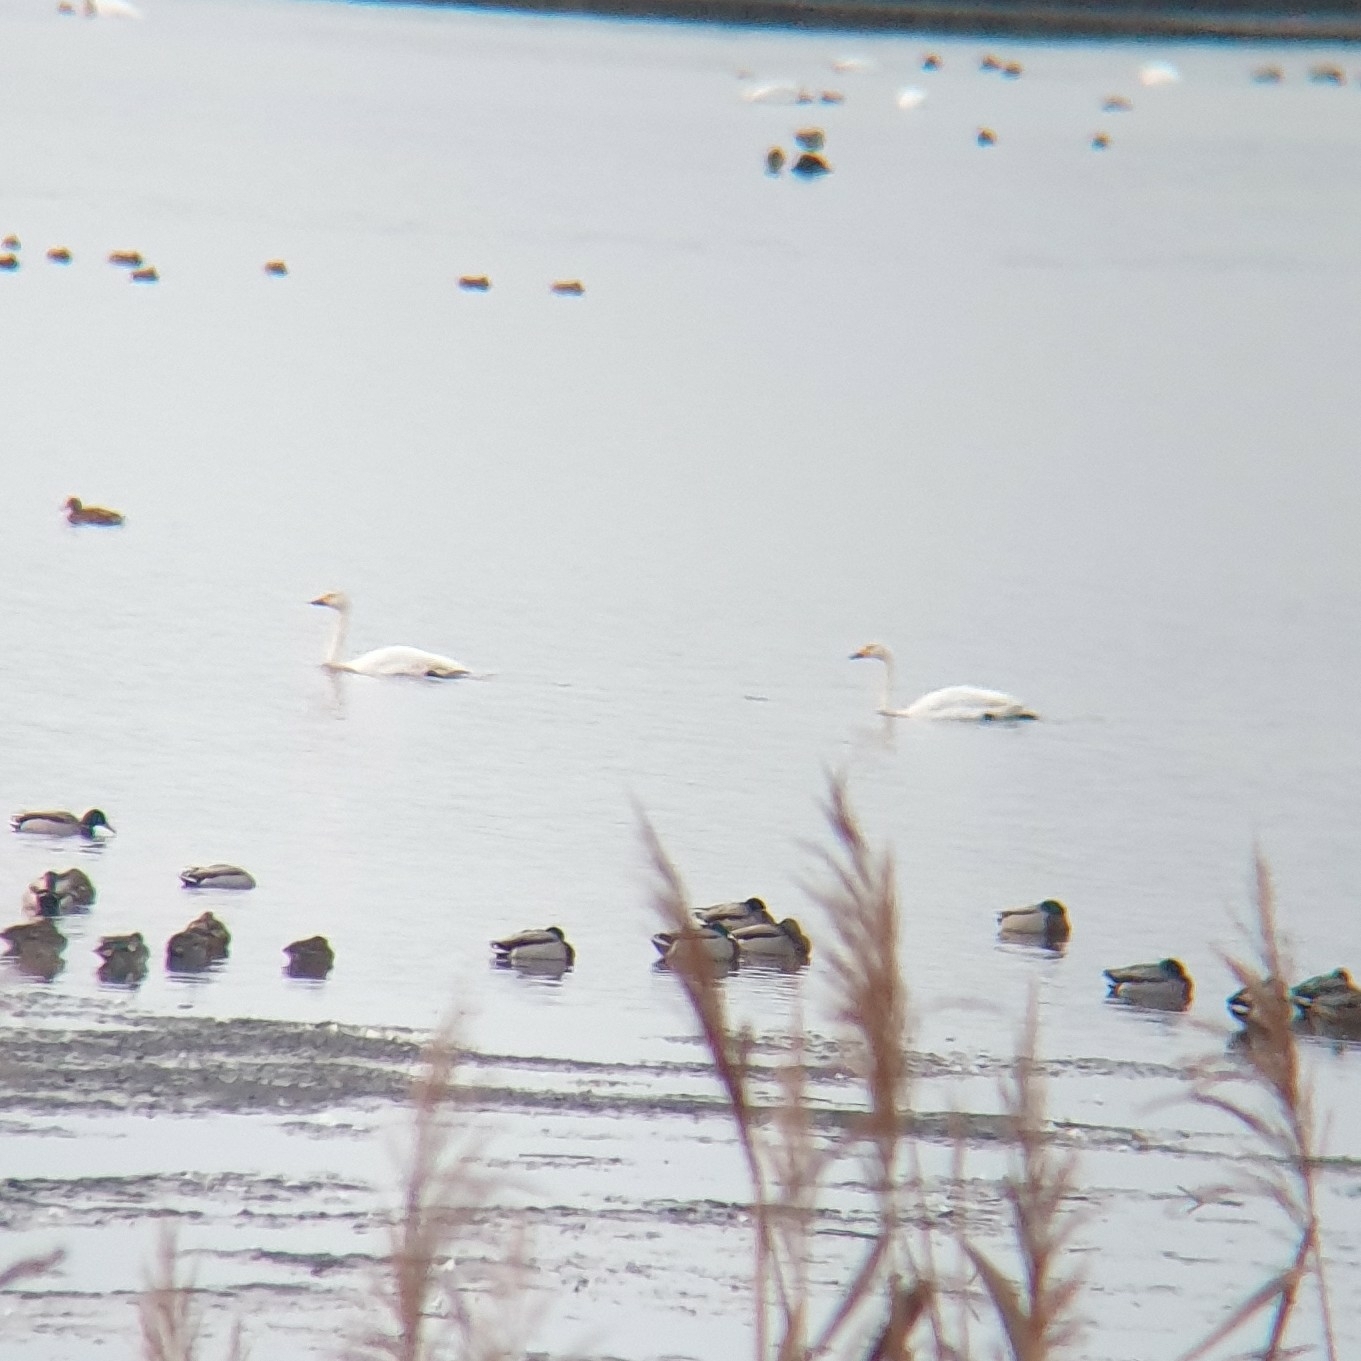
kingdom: Animalia
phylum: Chordata
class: Aves
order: Anseriformes
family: Anatidae
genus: Cygnus
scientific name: Cygnus columbianus
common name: Tundra swan
